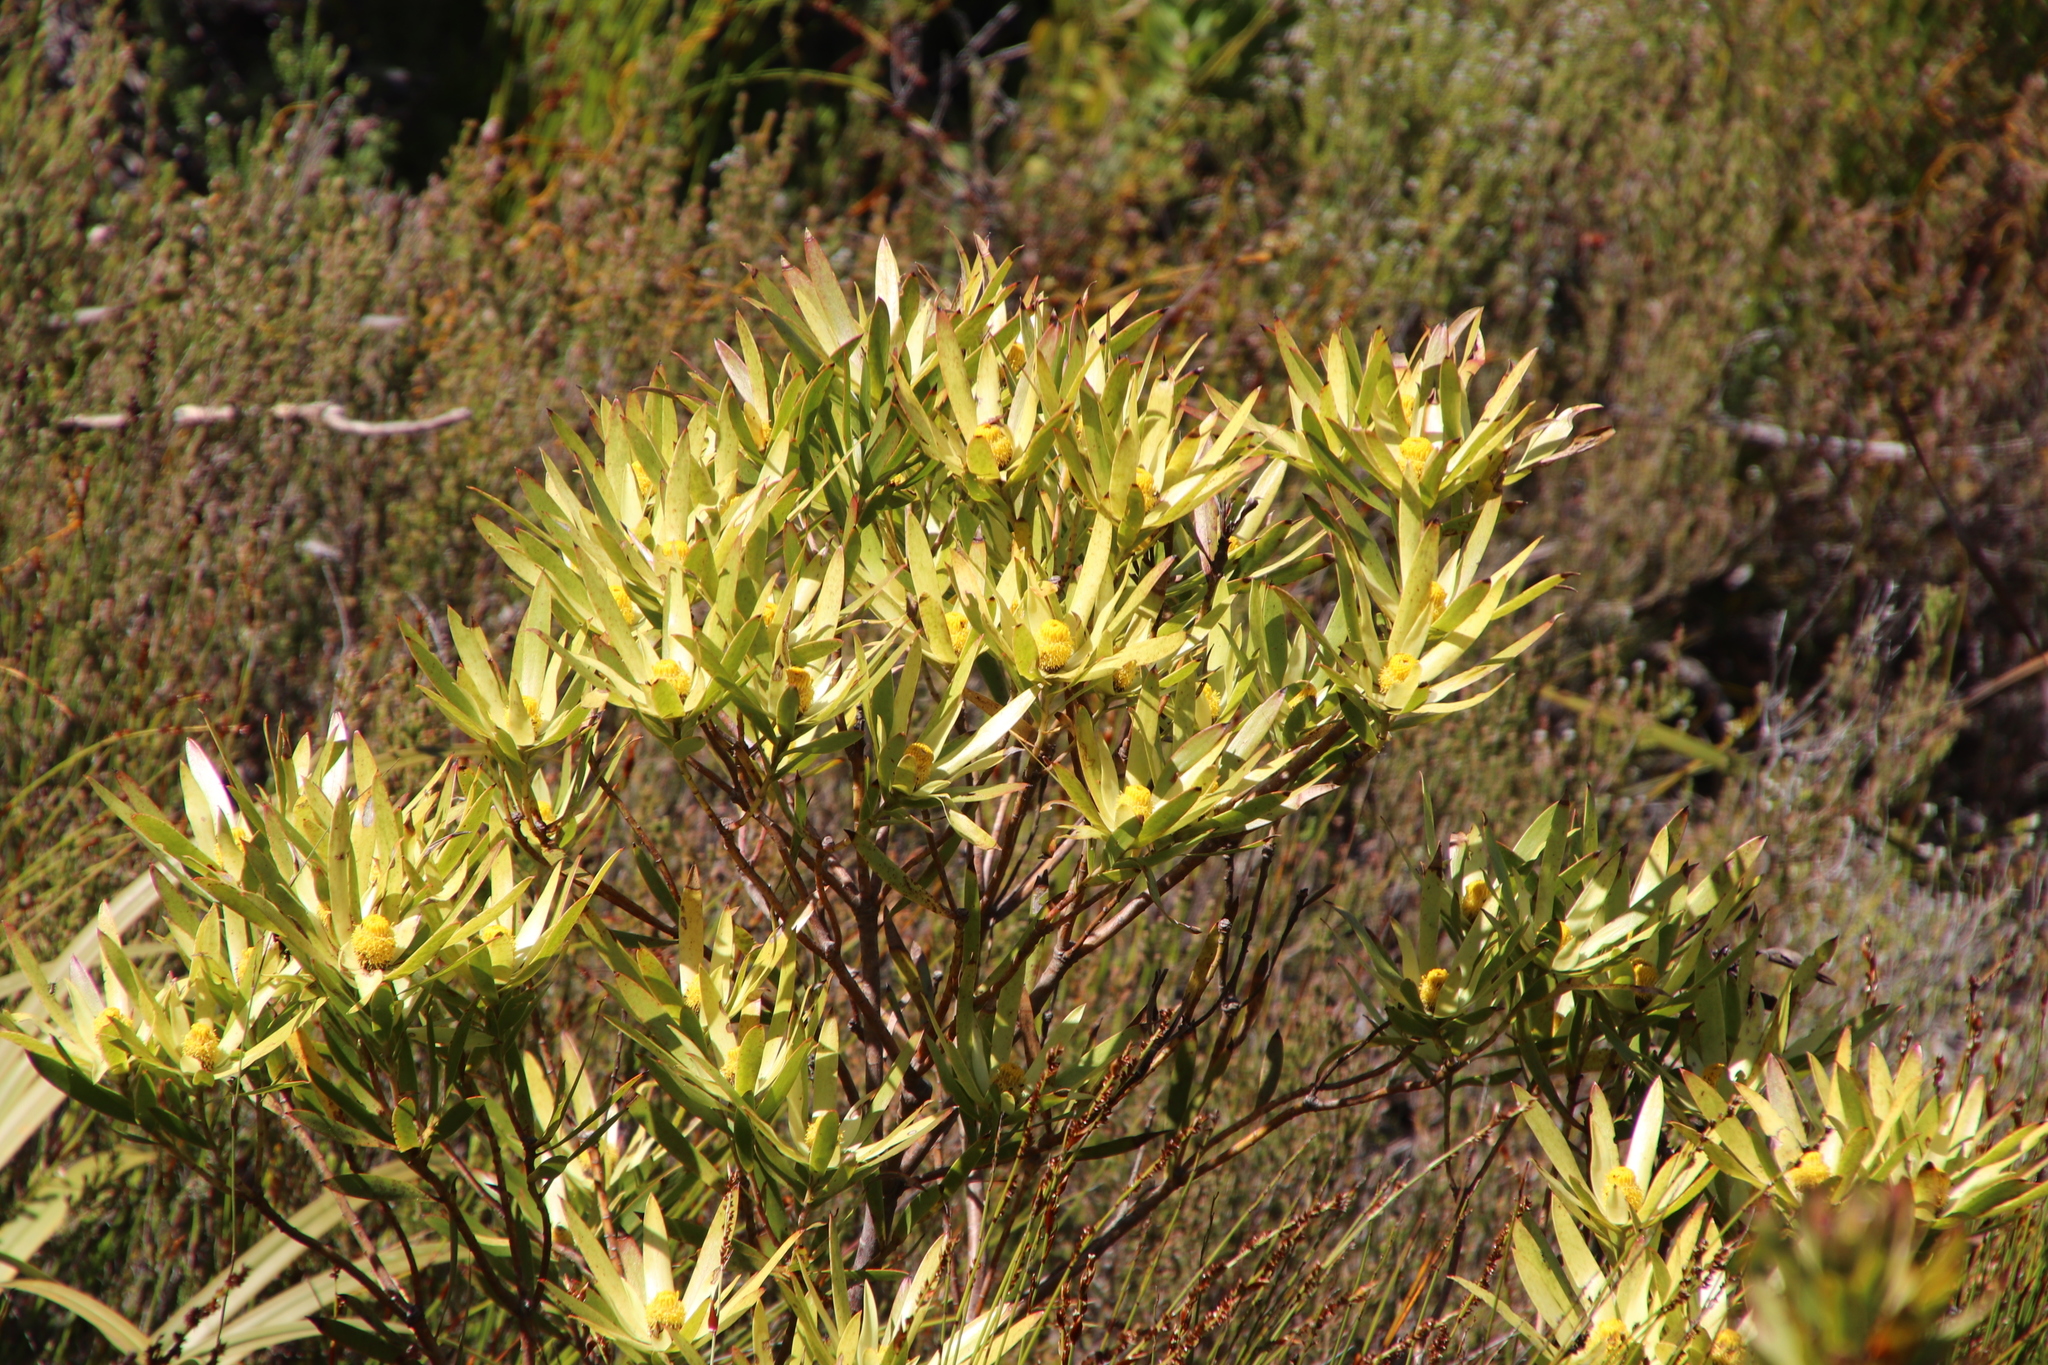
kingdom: Plantae
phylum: Tracheophyta
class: Magnoliopsida
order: Proteales
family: Proteaceae
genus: Leucadendron
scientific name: Leucadendron gandogeri
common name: Broad-leaf conebush
